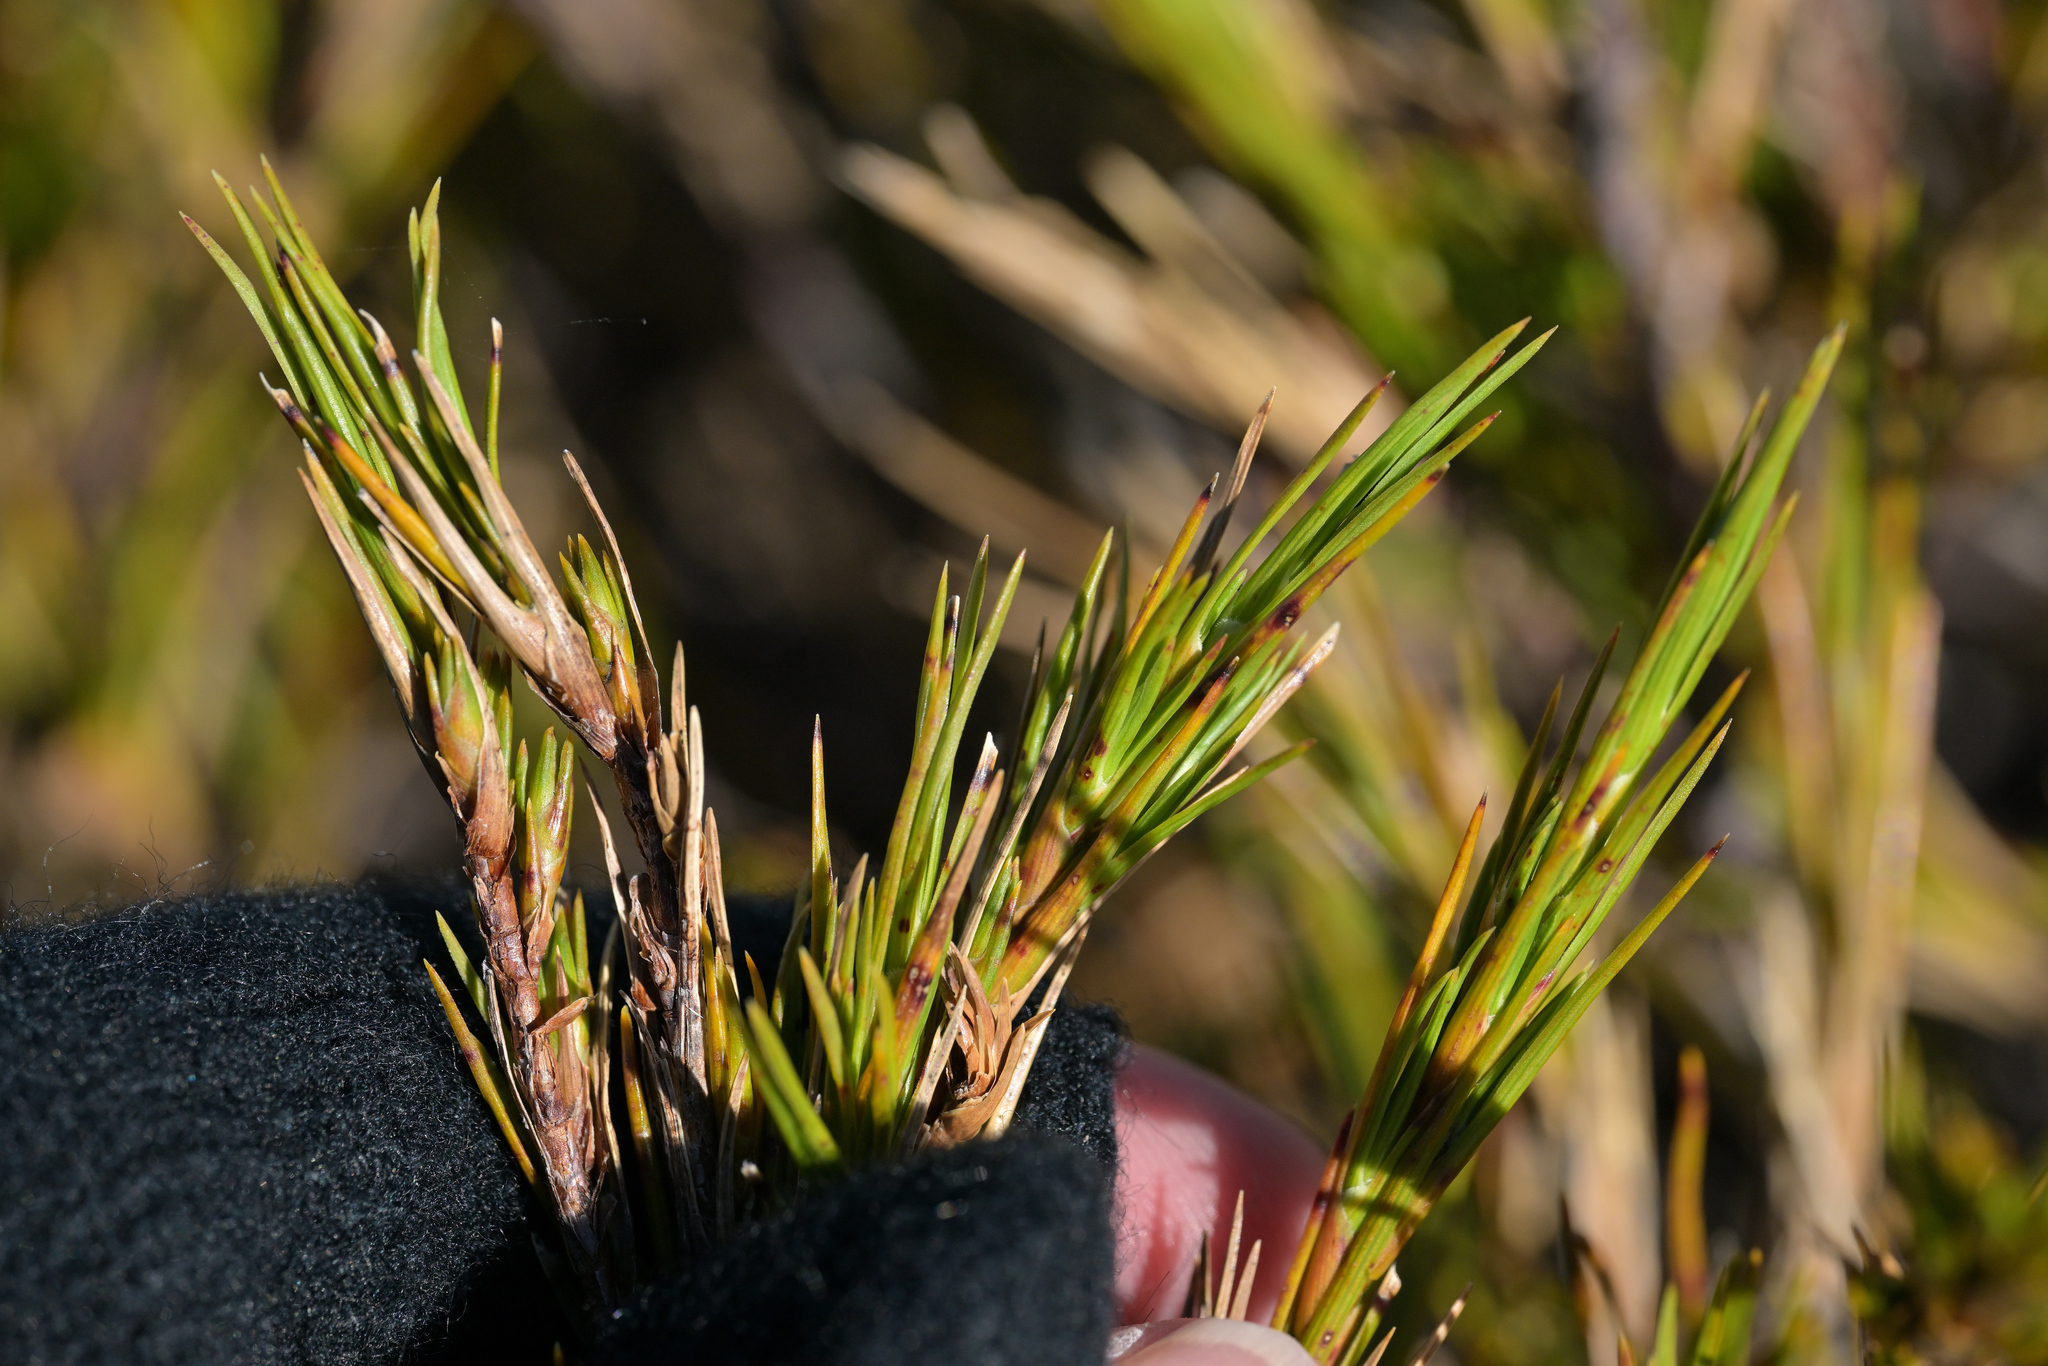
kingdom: Plantae
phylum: Tracheophyta
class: Magnoliopsida
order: Ericales
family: Ericaceae
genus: Dracophyllum
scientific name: Dracophyllum rosmarinifolium
